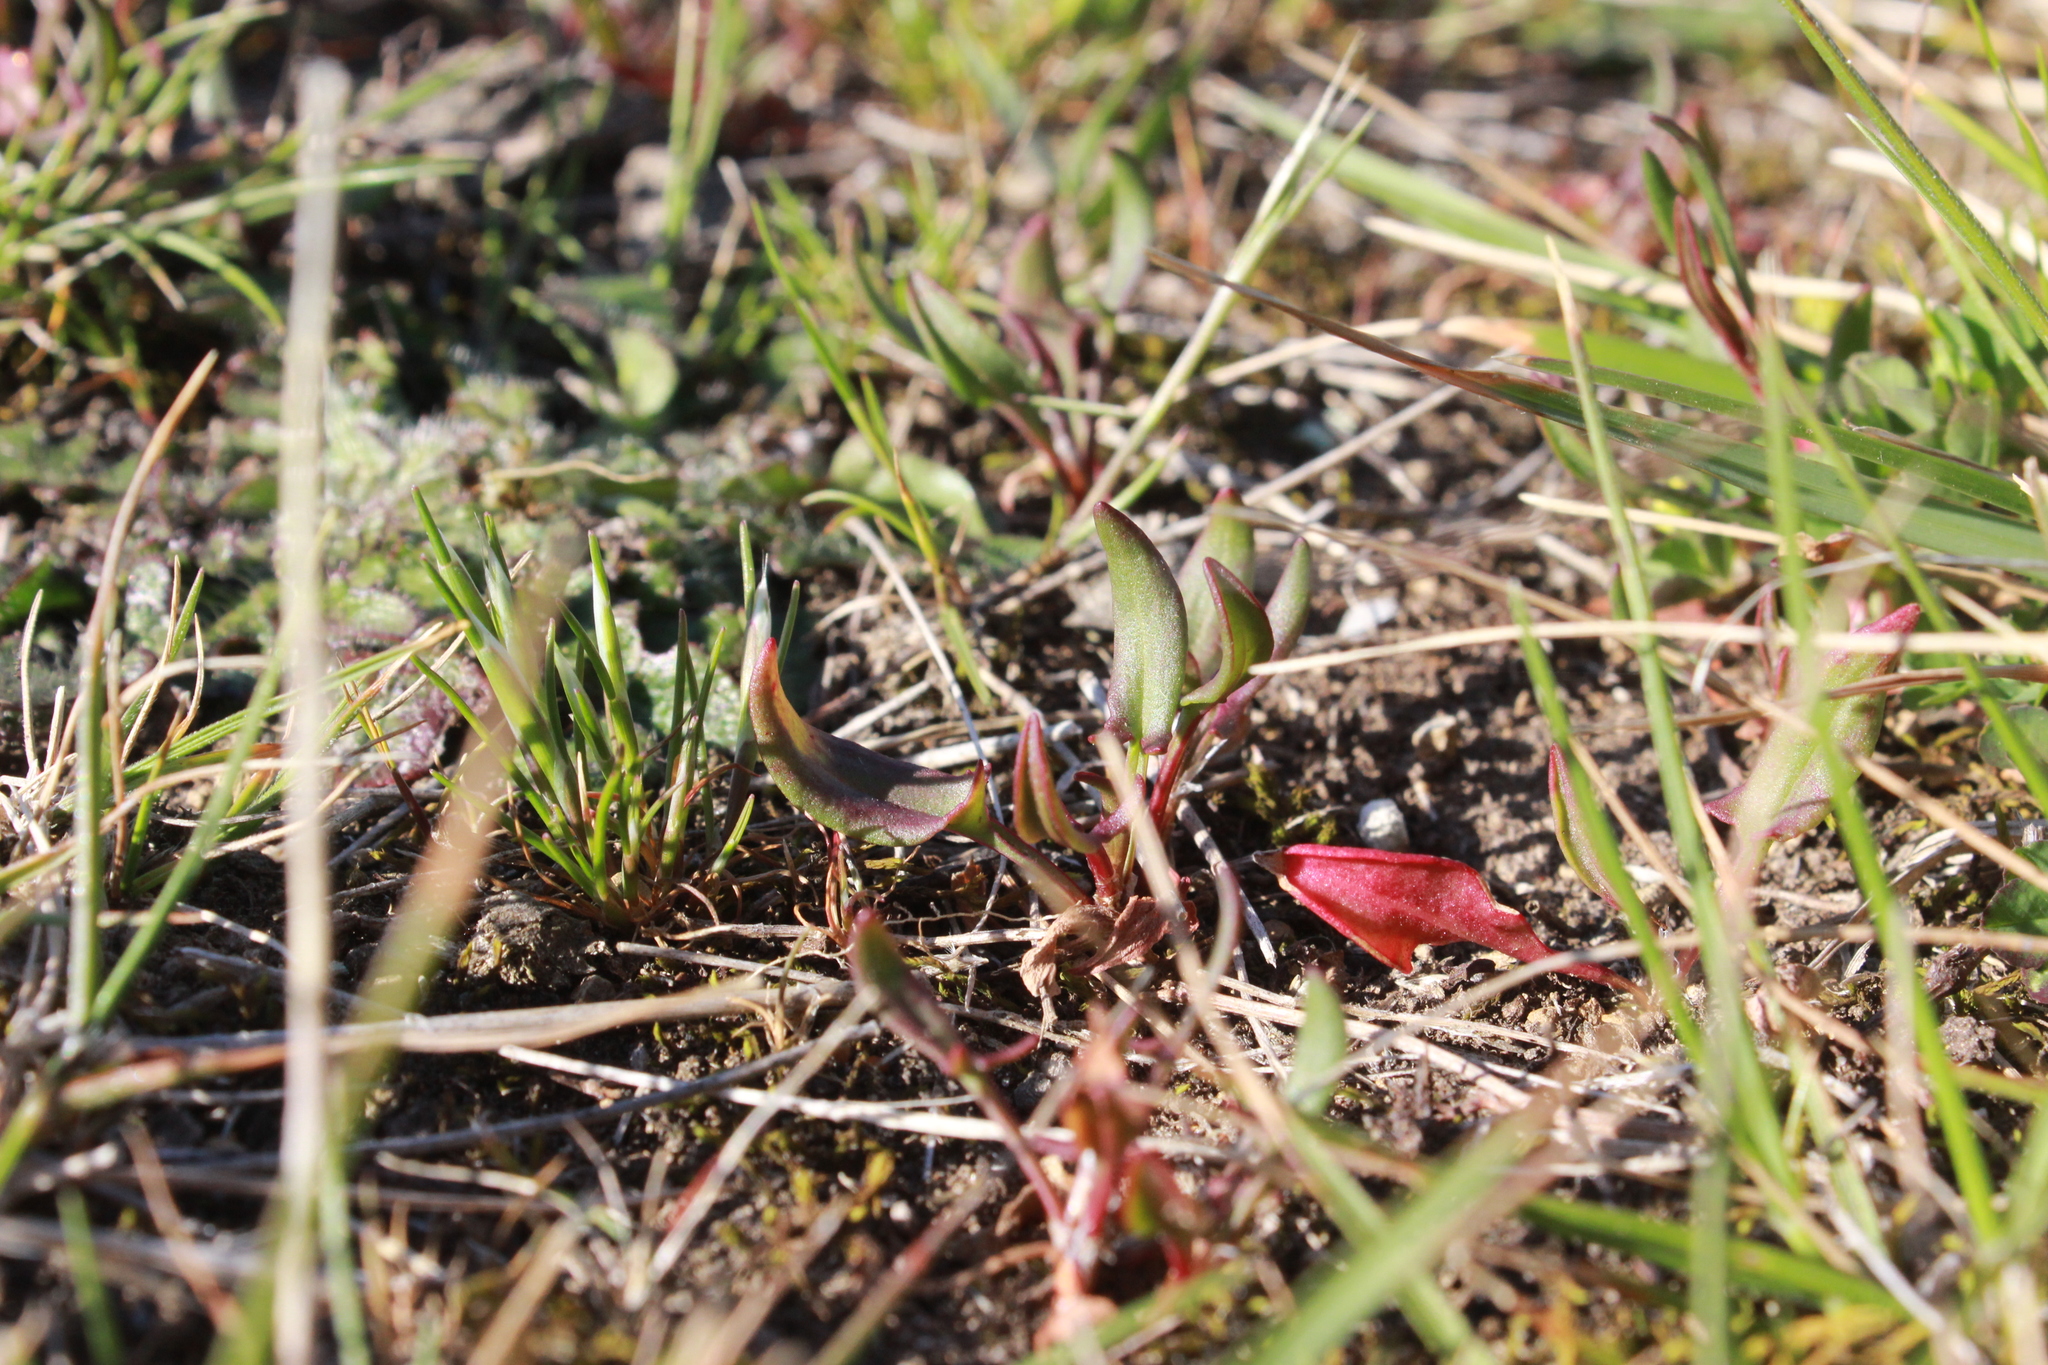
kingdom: Plantae
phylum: Tracheophyta
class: Magnoliopsida
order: Caryophyllales
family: Polygonaceae
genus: Rumex
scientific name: Rumex acetosella
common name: Common sheep sorrel
